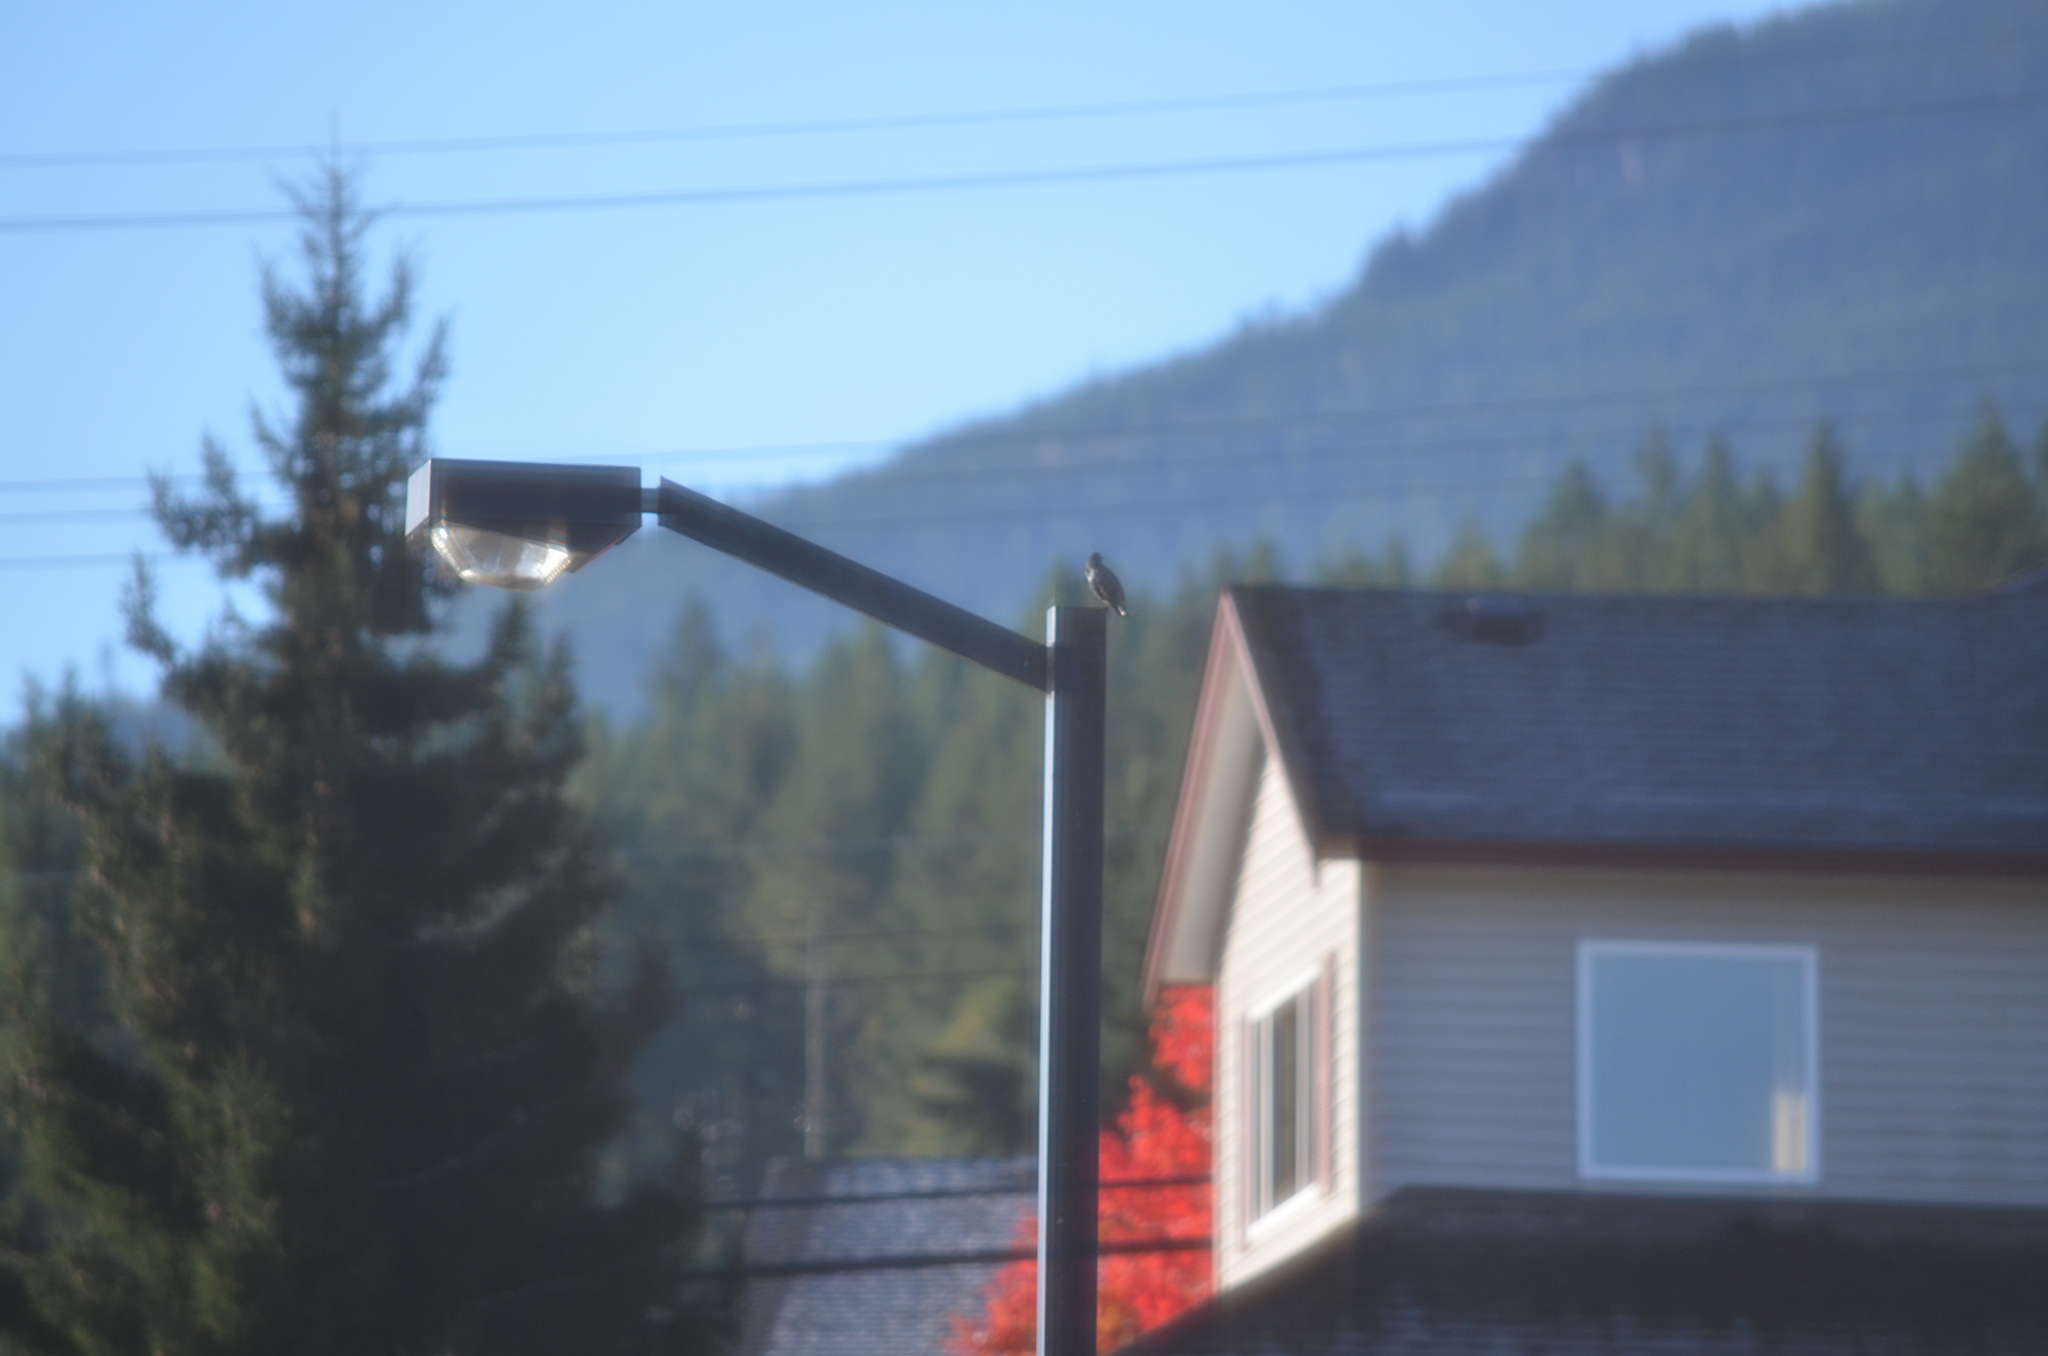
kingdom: Animalia
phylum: Chordata
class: Aves
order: Passeriformes
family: Sturnidae
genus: Sturnus
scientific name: Sturnus vulgaris
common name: Common starling
